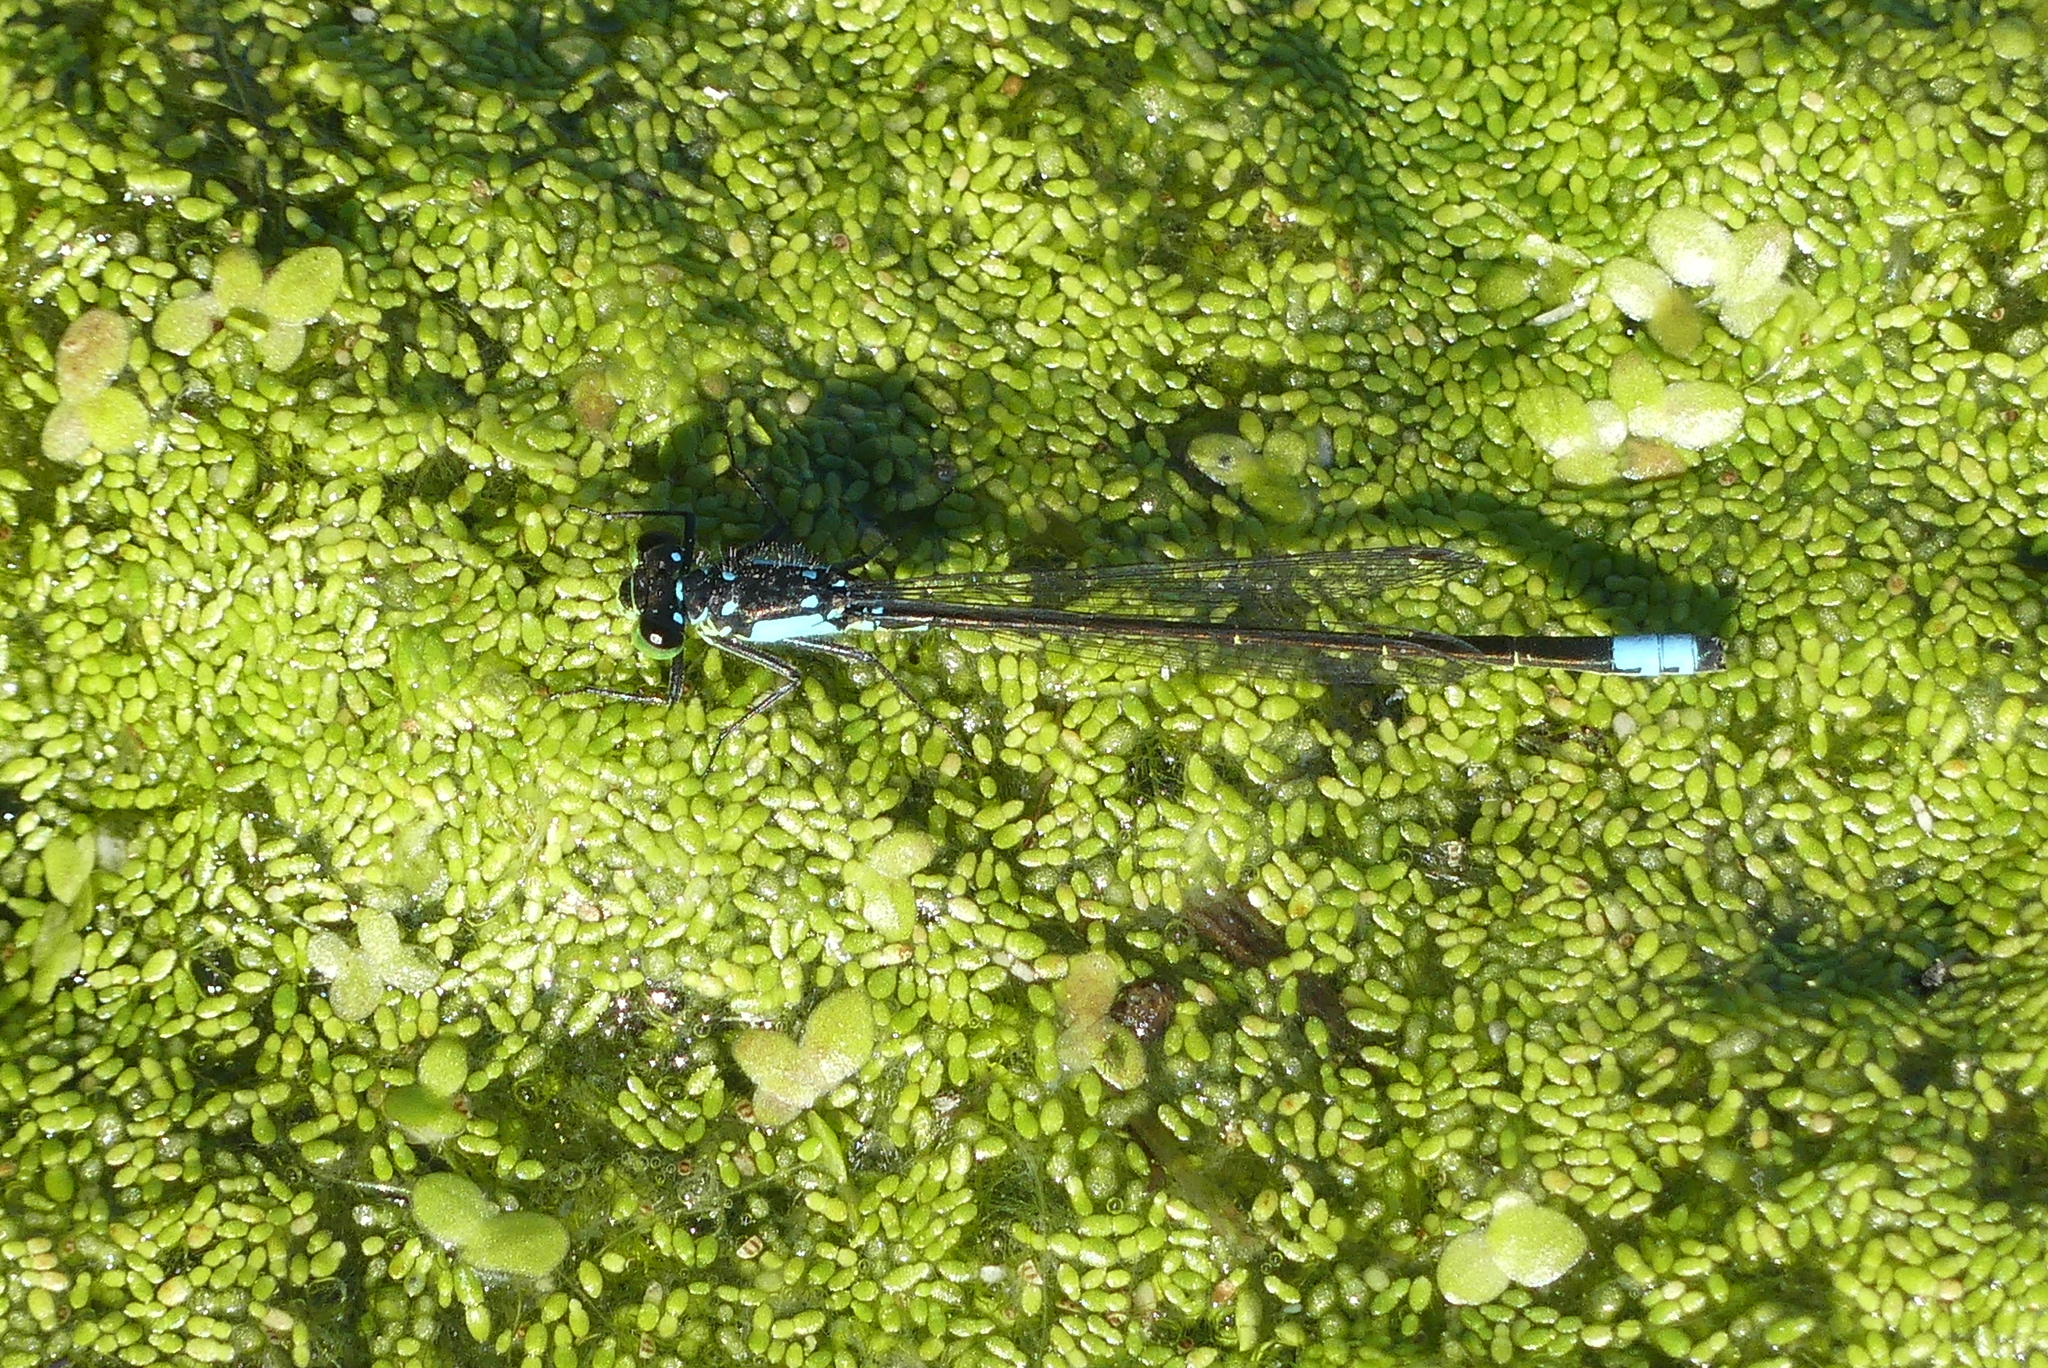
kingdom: Animalia
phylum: Arthropoda
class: Insecta
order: Odonata
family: Coenagrionidae
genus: Ischnura
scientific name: Ischnura cervula
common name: Pacific forktail
